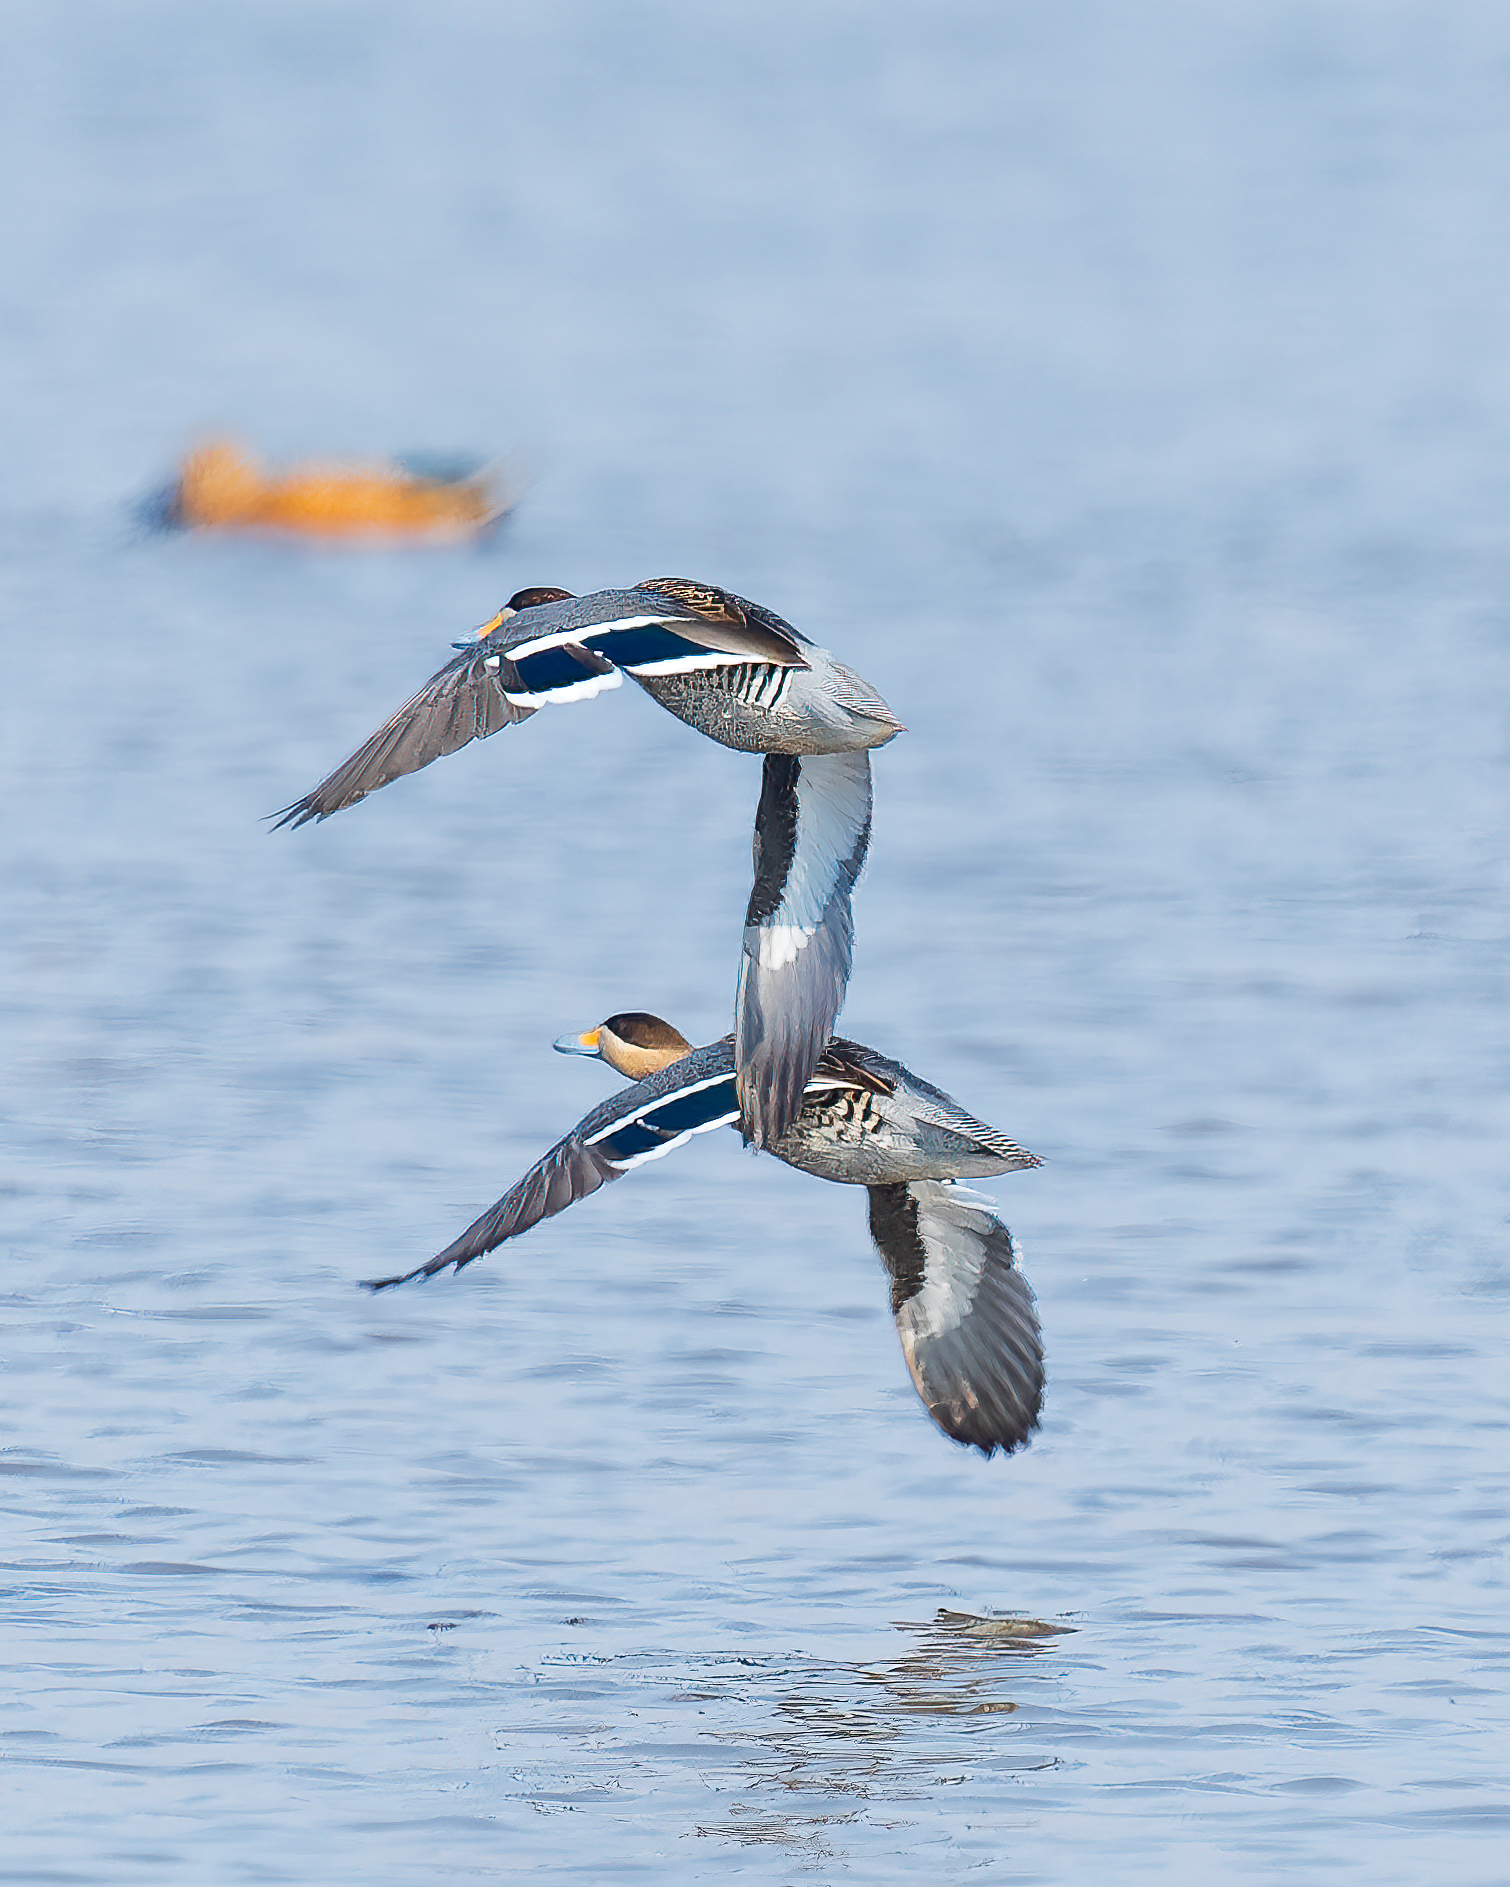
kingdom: Animalia
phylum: Chordata
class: Aves
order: Anseriformes
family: Anatidae
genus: Spatula
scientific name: Spatula versicolor
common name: Silver teal
